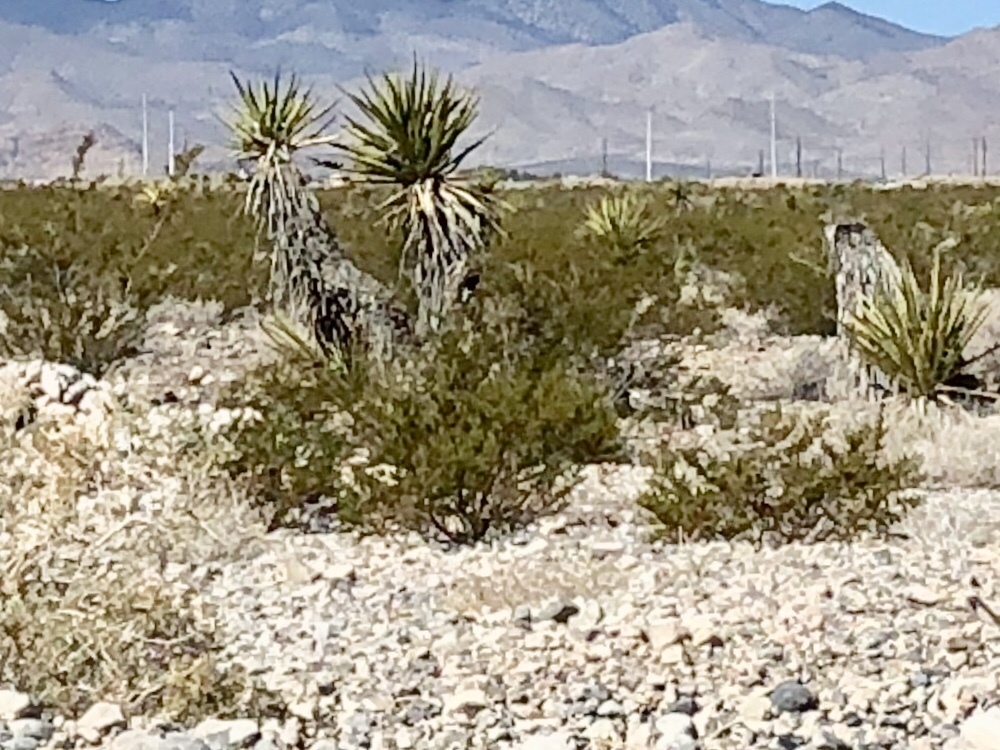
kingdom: Plantae
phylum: Tracheophyta
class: Magnoliopsida
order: Zygophyllales
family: Zygophyllaceae
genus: Larrea
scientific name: Larrea tridentata
